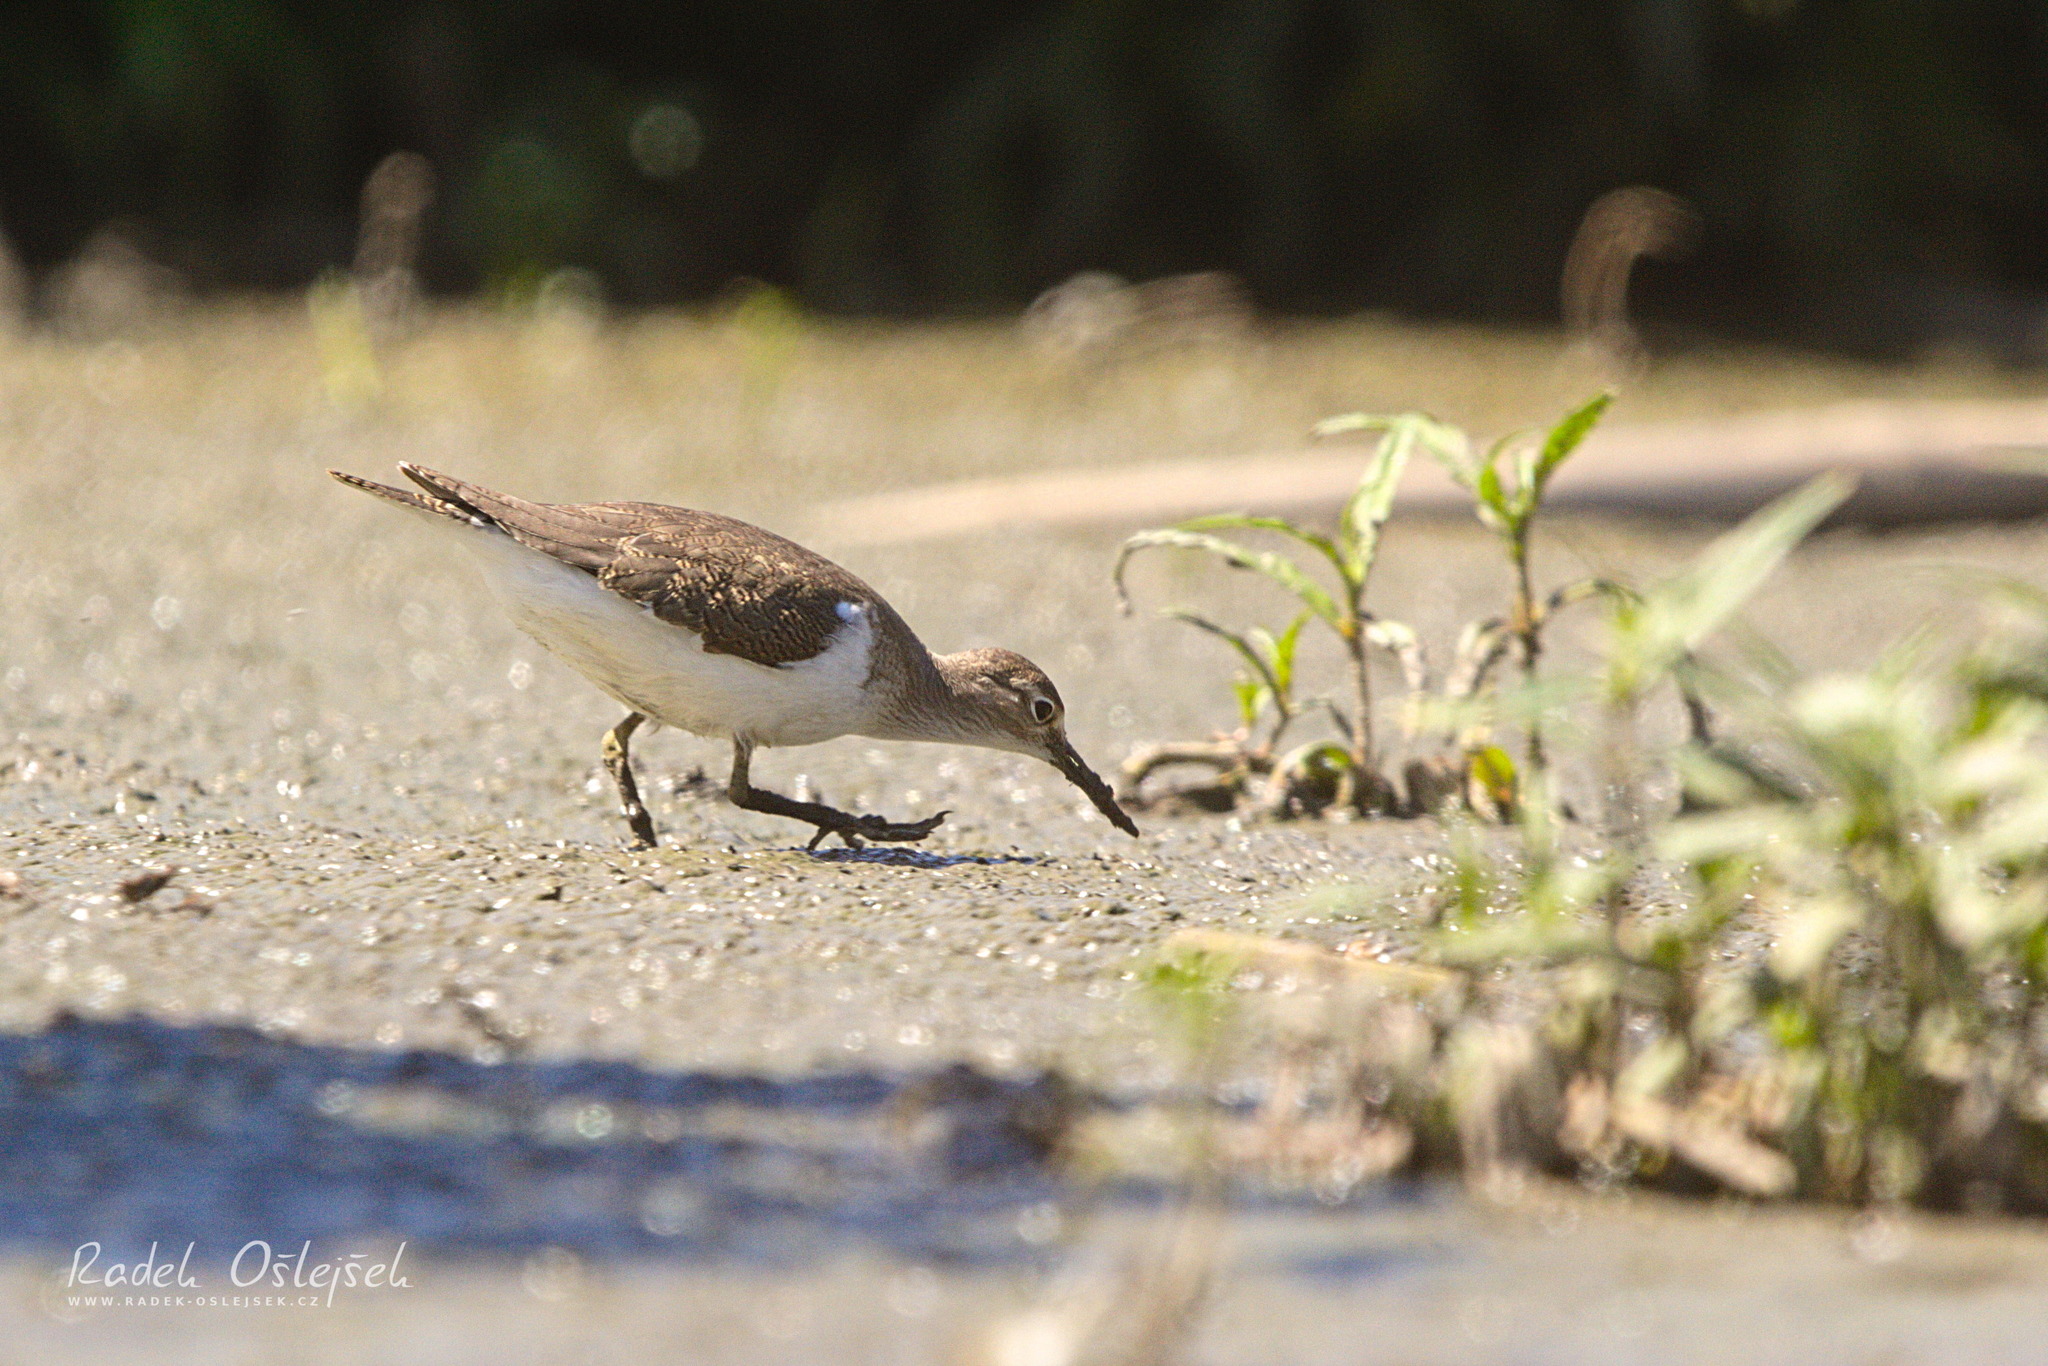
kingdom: Animalia
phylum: Chordata
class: Aves
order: Charadriiformes
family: Scolopacidae
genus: Actitis
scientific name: Actitis hypoleucos
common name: Common sandpiper
